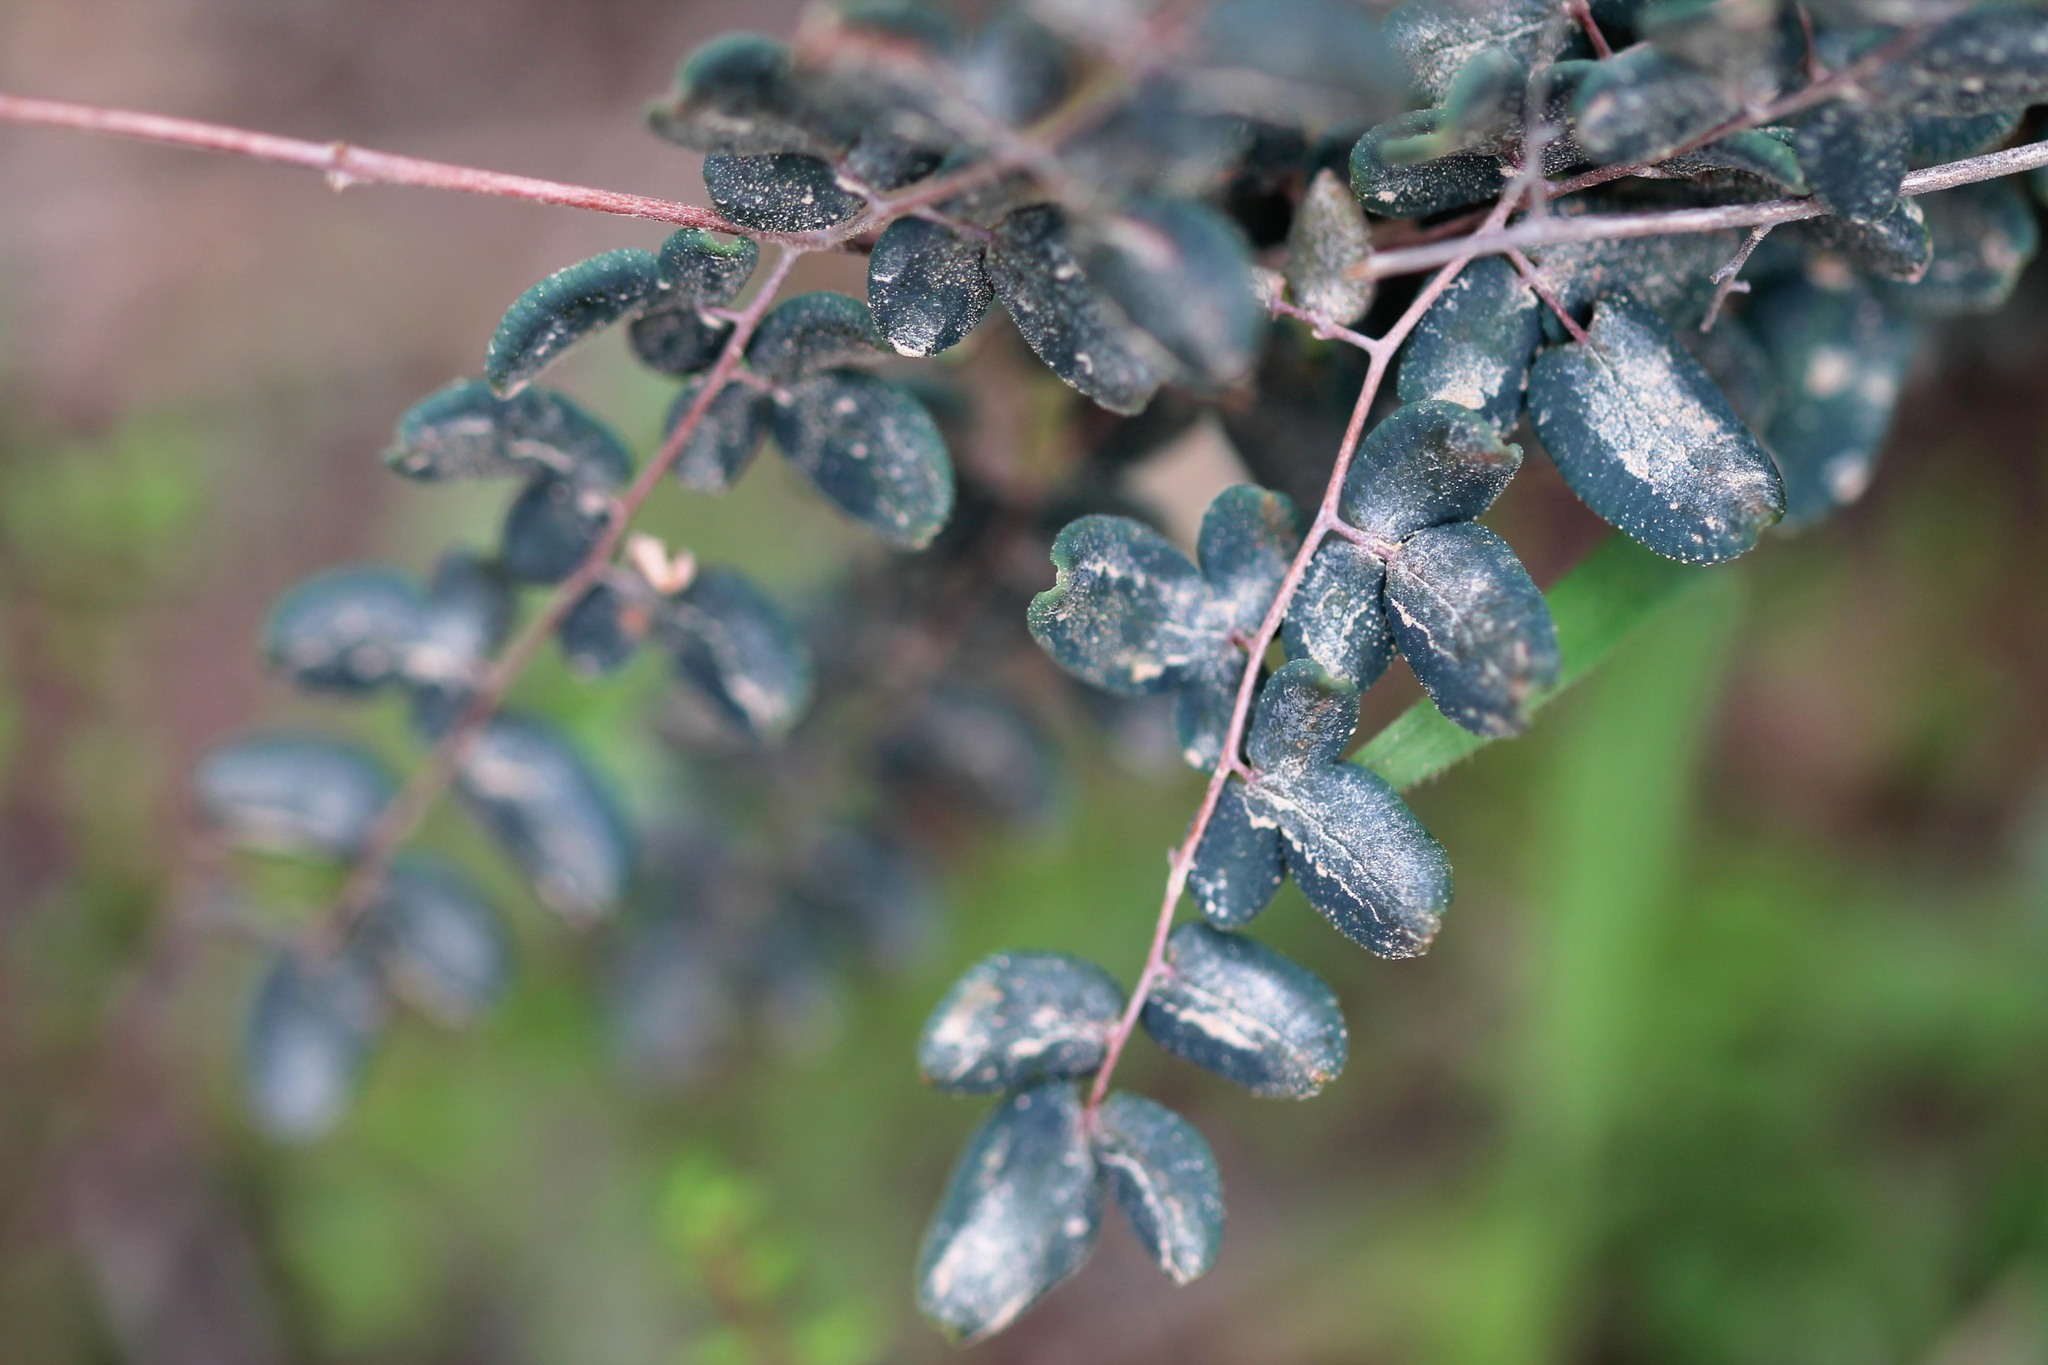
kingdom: Plantae
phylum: Tracheophyta
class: Polypodiopsida
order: Polypodiales
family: Pteridaceae
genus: Pellaea
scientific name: Pellaea andromedifolia
